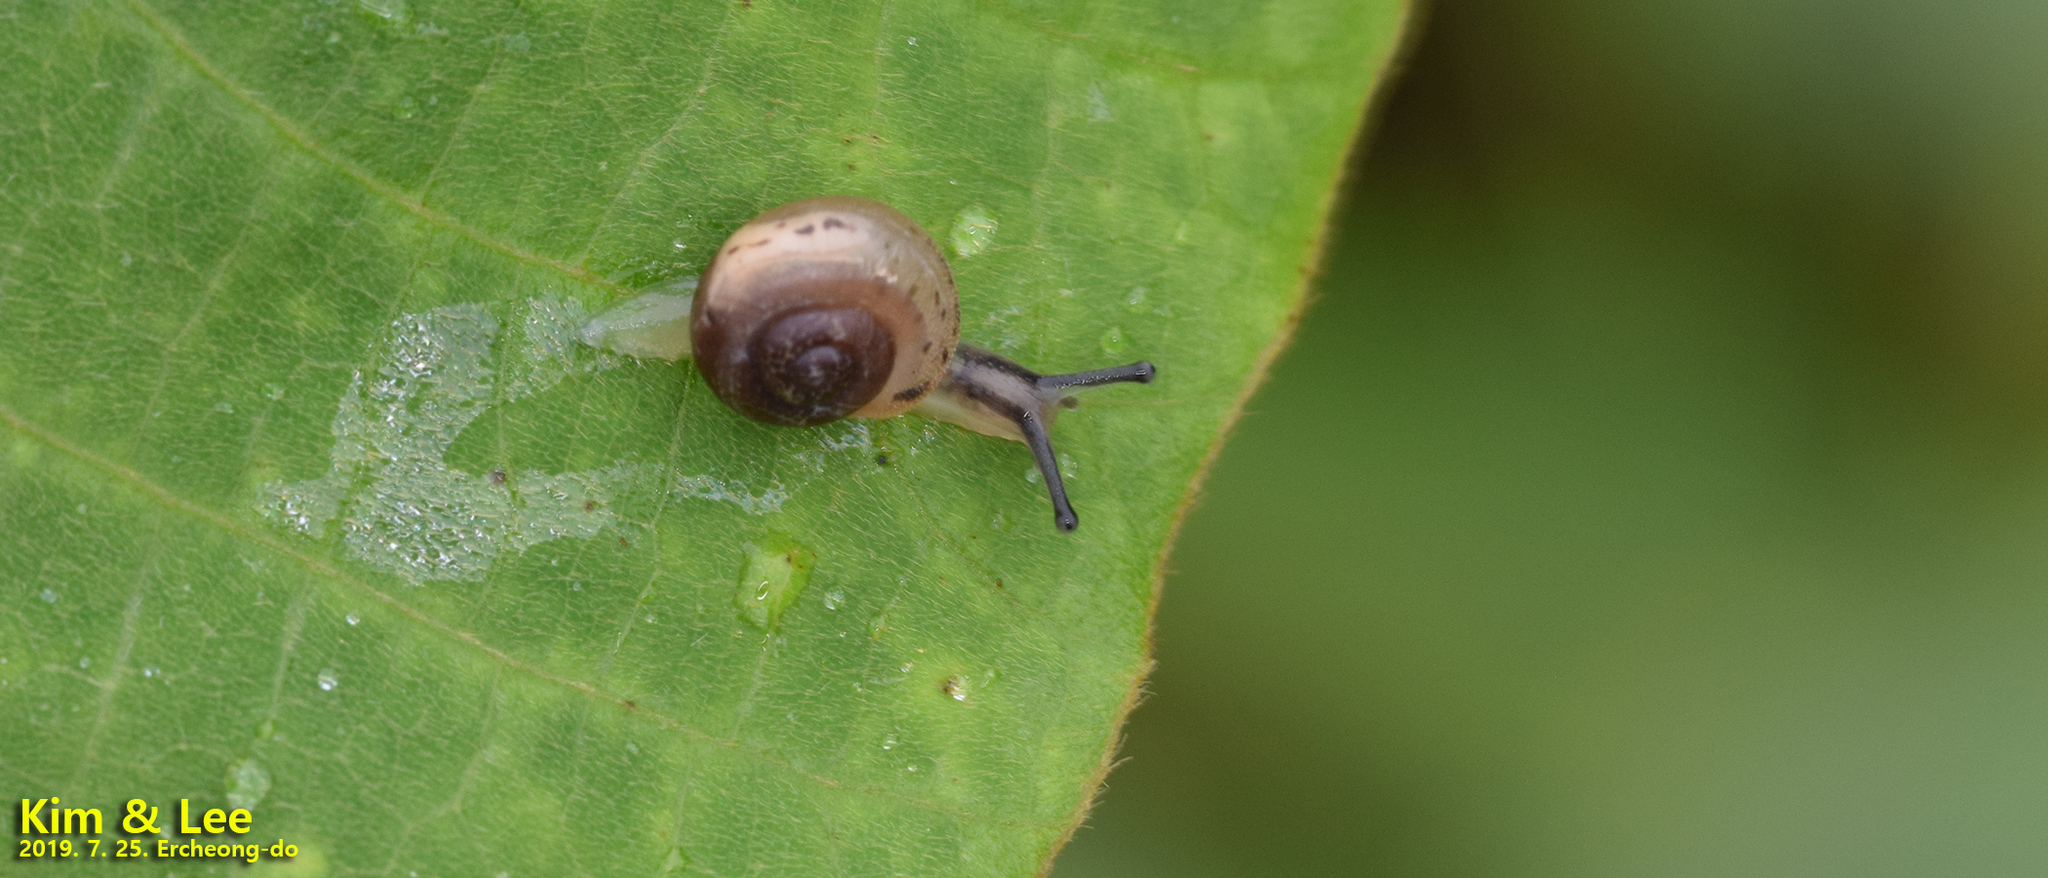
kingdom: Animalia
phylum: Mollusca
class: Gastropoda
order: Stylommatophora
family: Camaenidae
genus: Acusta
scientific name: Acusta redfieldi
